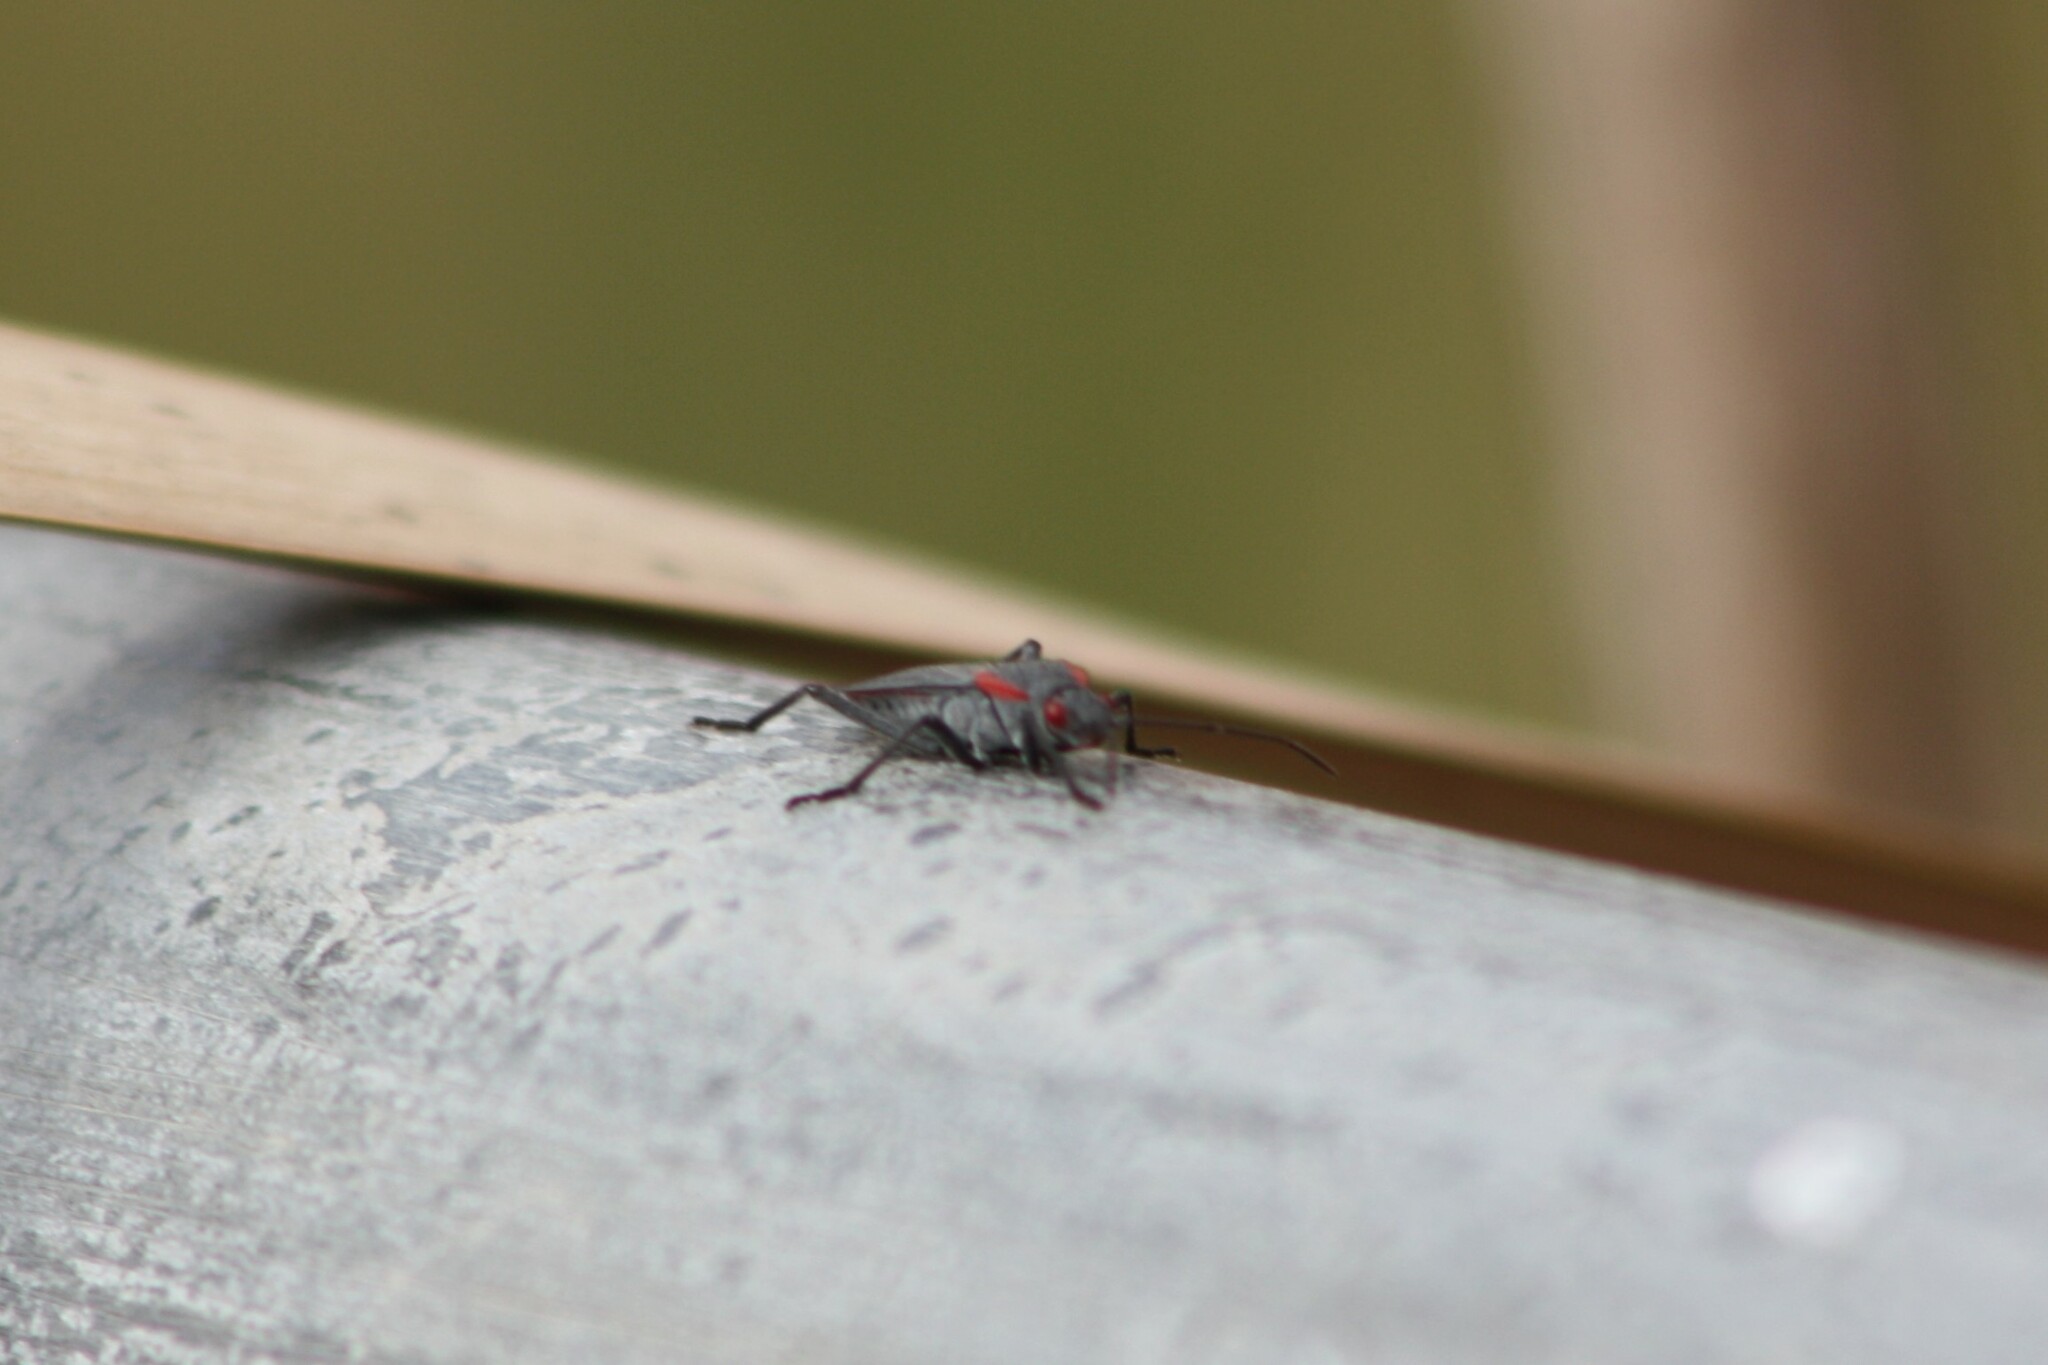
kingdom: Animalia
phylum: Arthropoda
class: Insecta
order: Hemiptera
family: Rhopalidae
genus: Jadera
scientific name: Jadera haematoloma
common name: Red-shouldered bug
